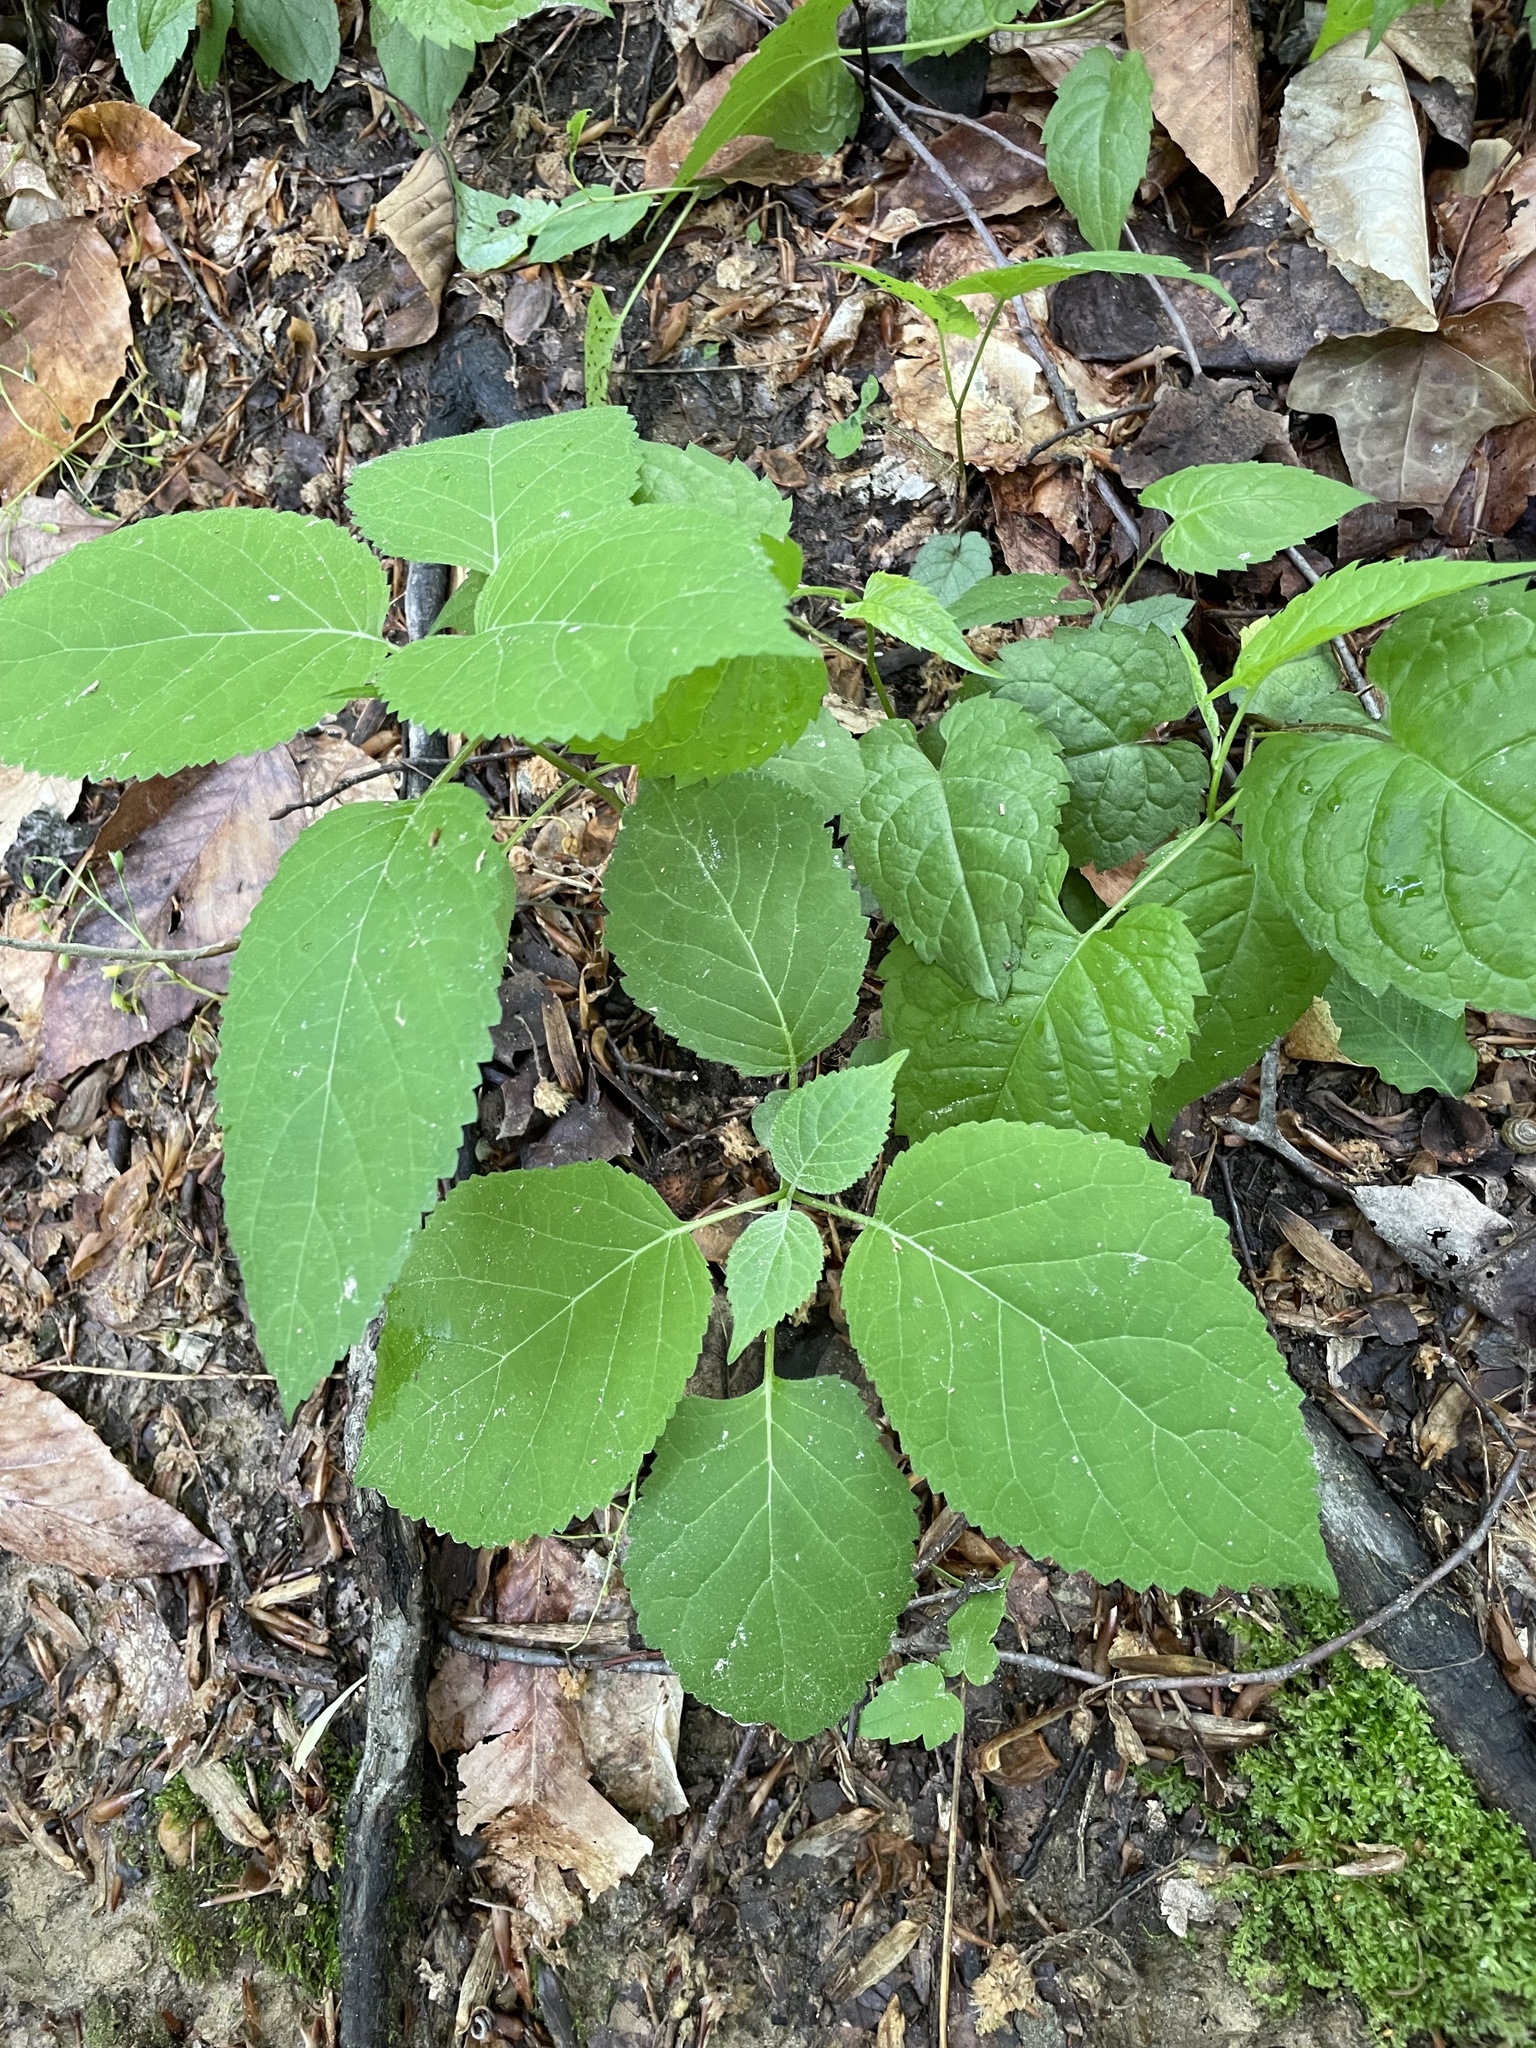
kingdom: Plantae
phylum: Tracheophyta
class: Magnoliopsida
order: Cornales
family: Hydrangeaceae
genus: Hydrangea
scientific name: Hydrangea arborescens
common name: Sevenbark
